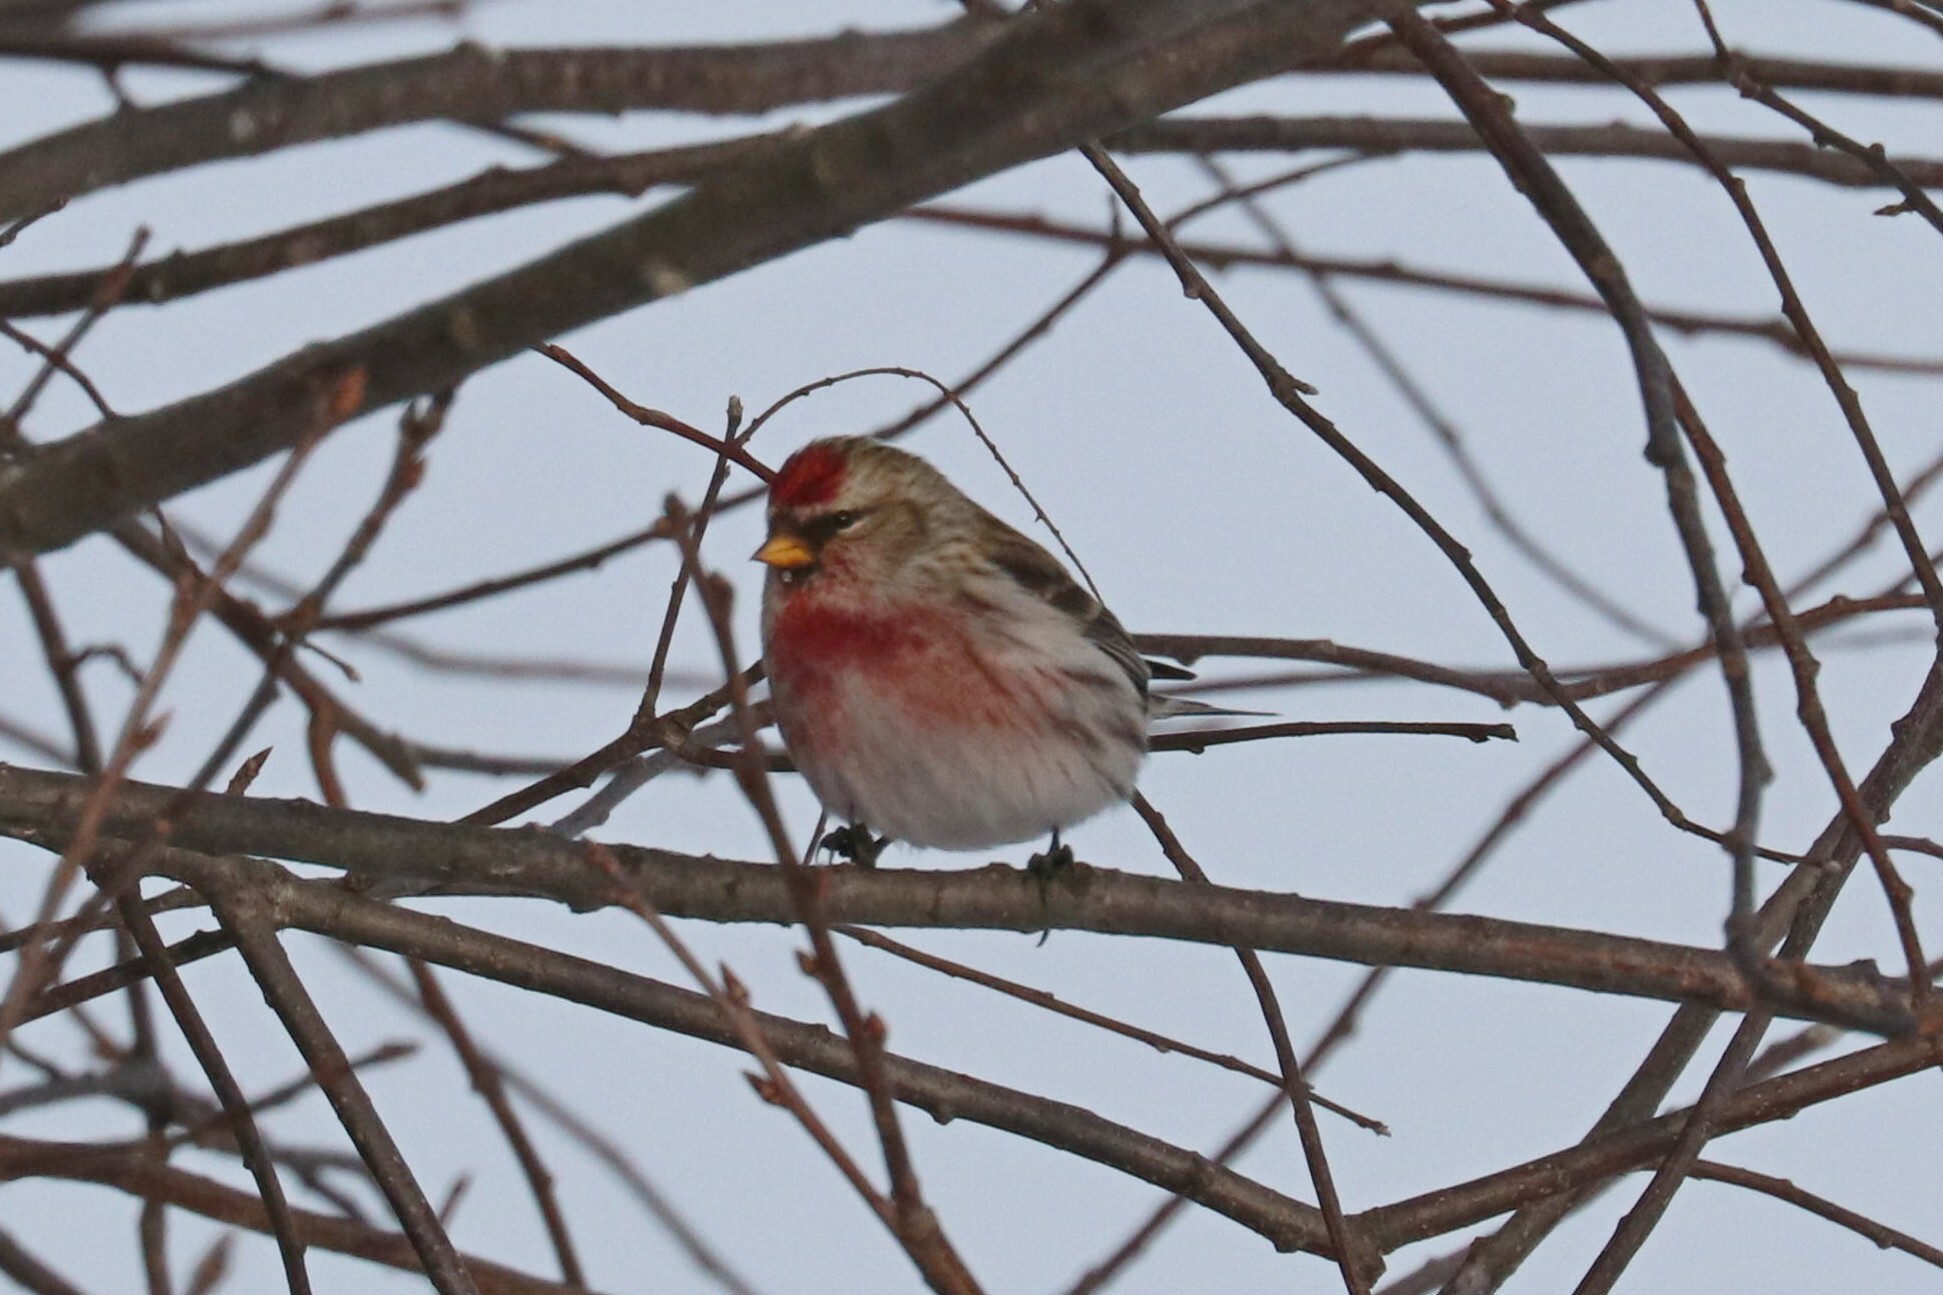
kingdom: Animalia
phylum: Chordata
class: Aves
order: Passeriformes
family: Fringillidae
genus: Acanthis
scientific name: Acanthis flammea
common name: Common redpoll
